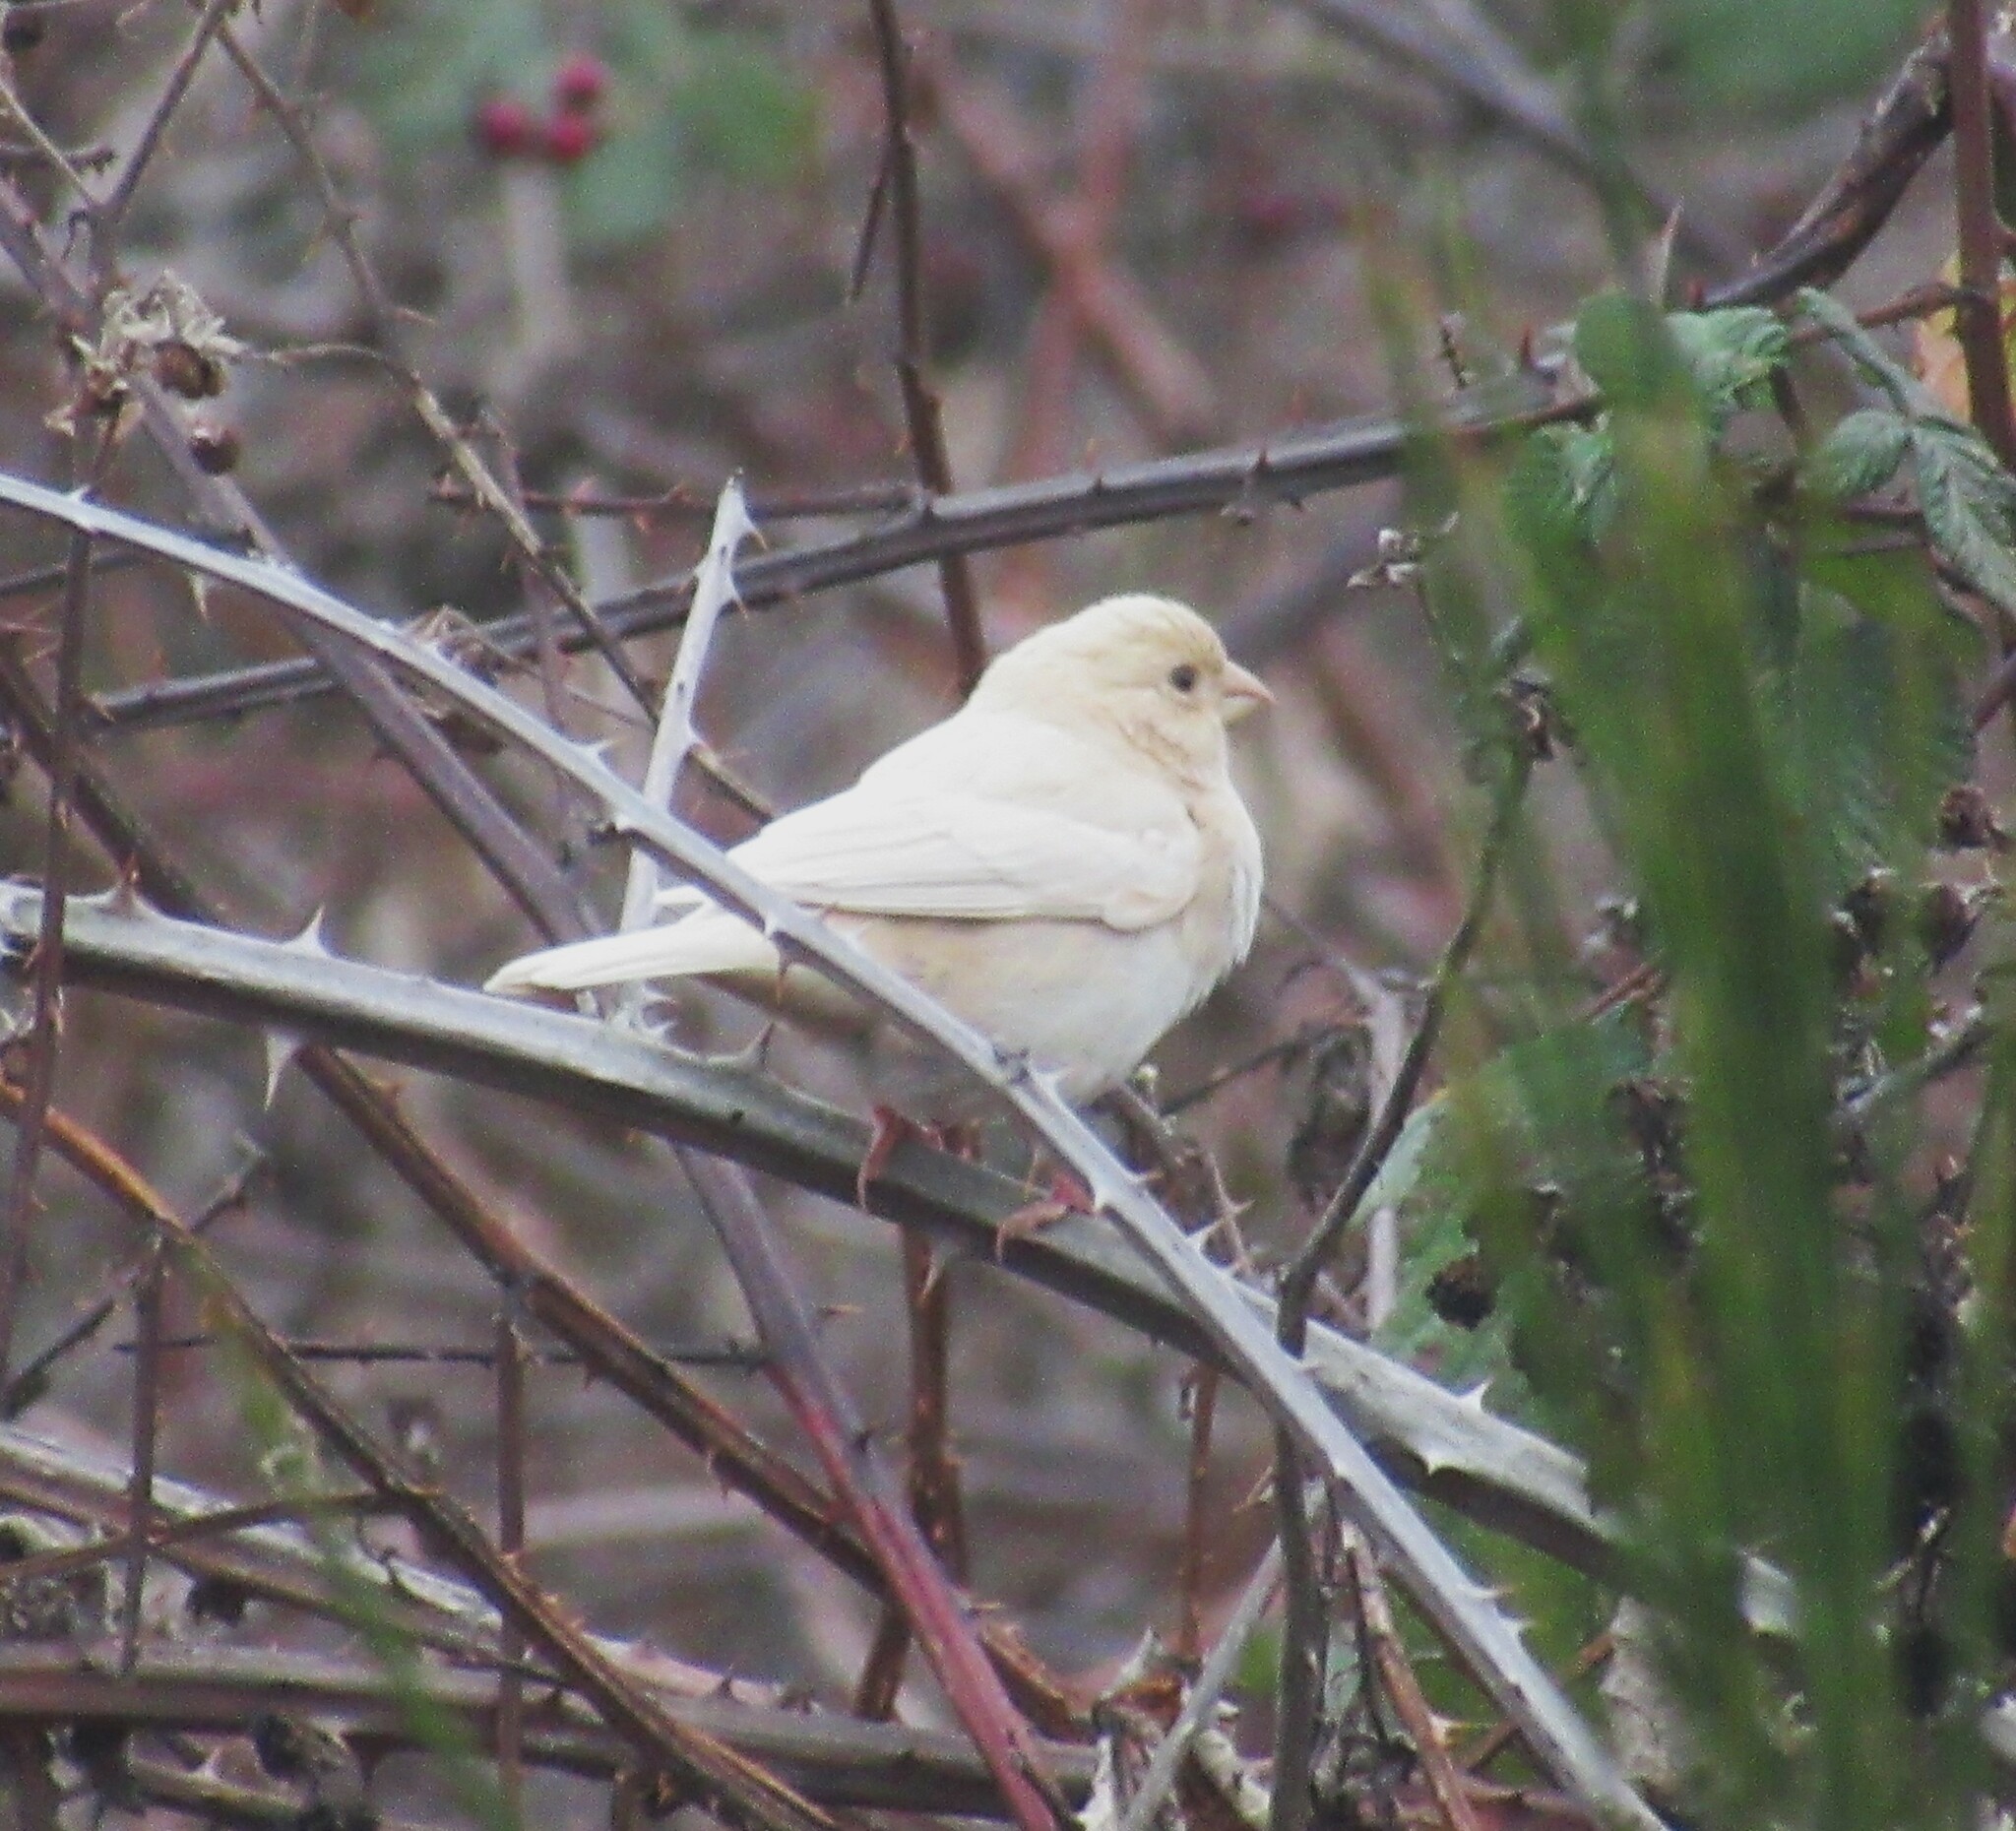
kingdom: Animalia
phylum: Chordata
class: Aves
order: Passeriformes
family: Fringillidae
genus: Haemorhous
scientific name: Haemorhous mexicanus
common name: House finch
